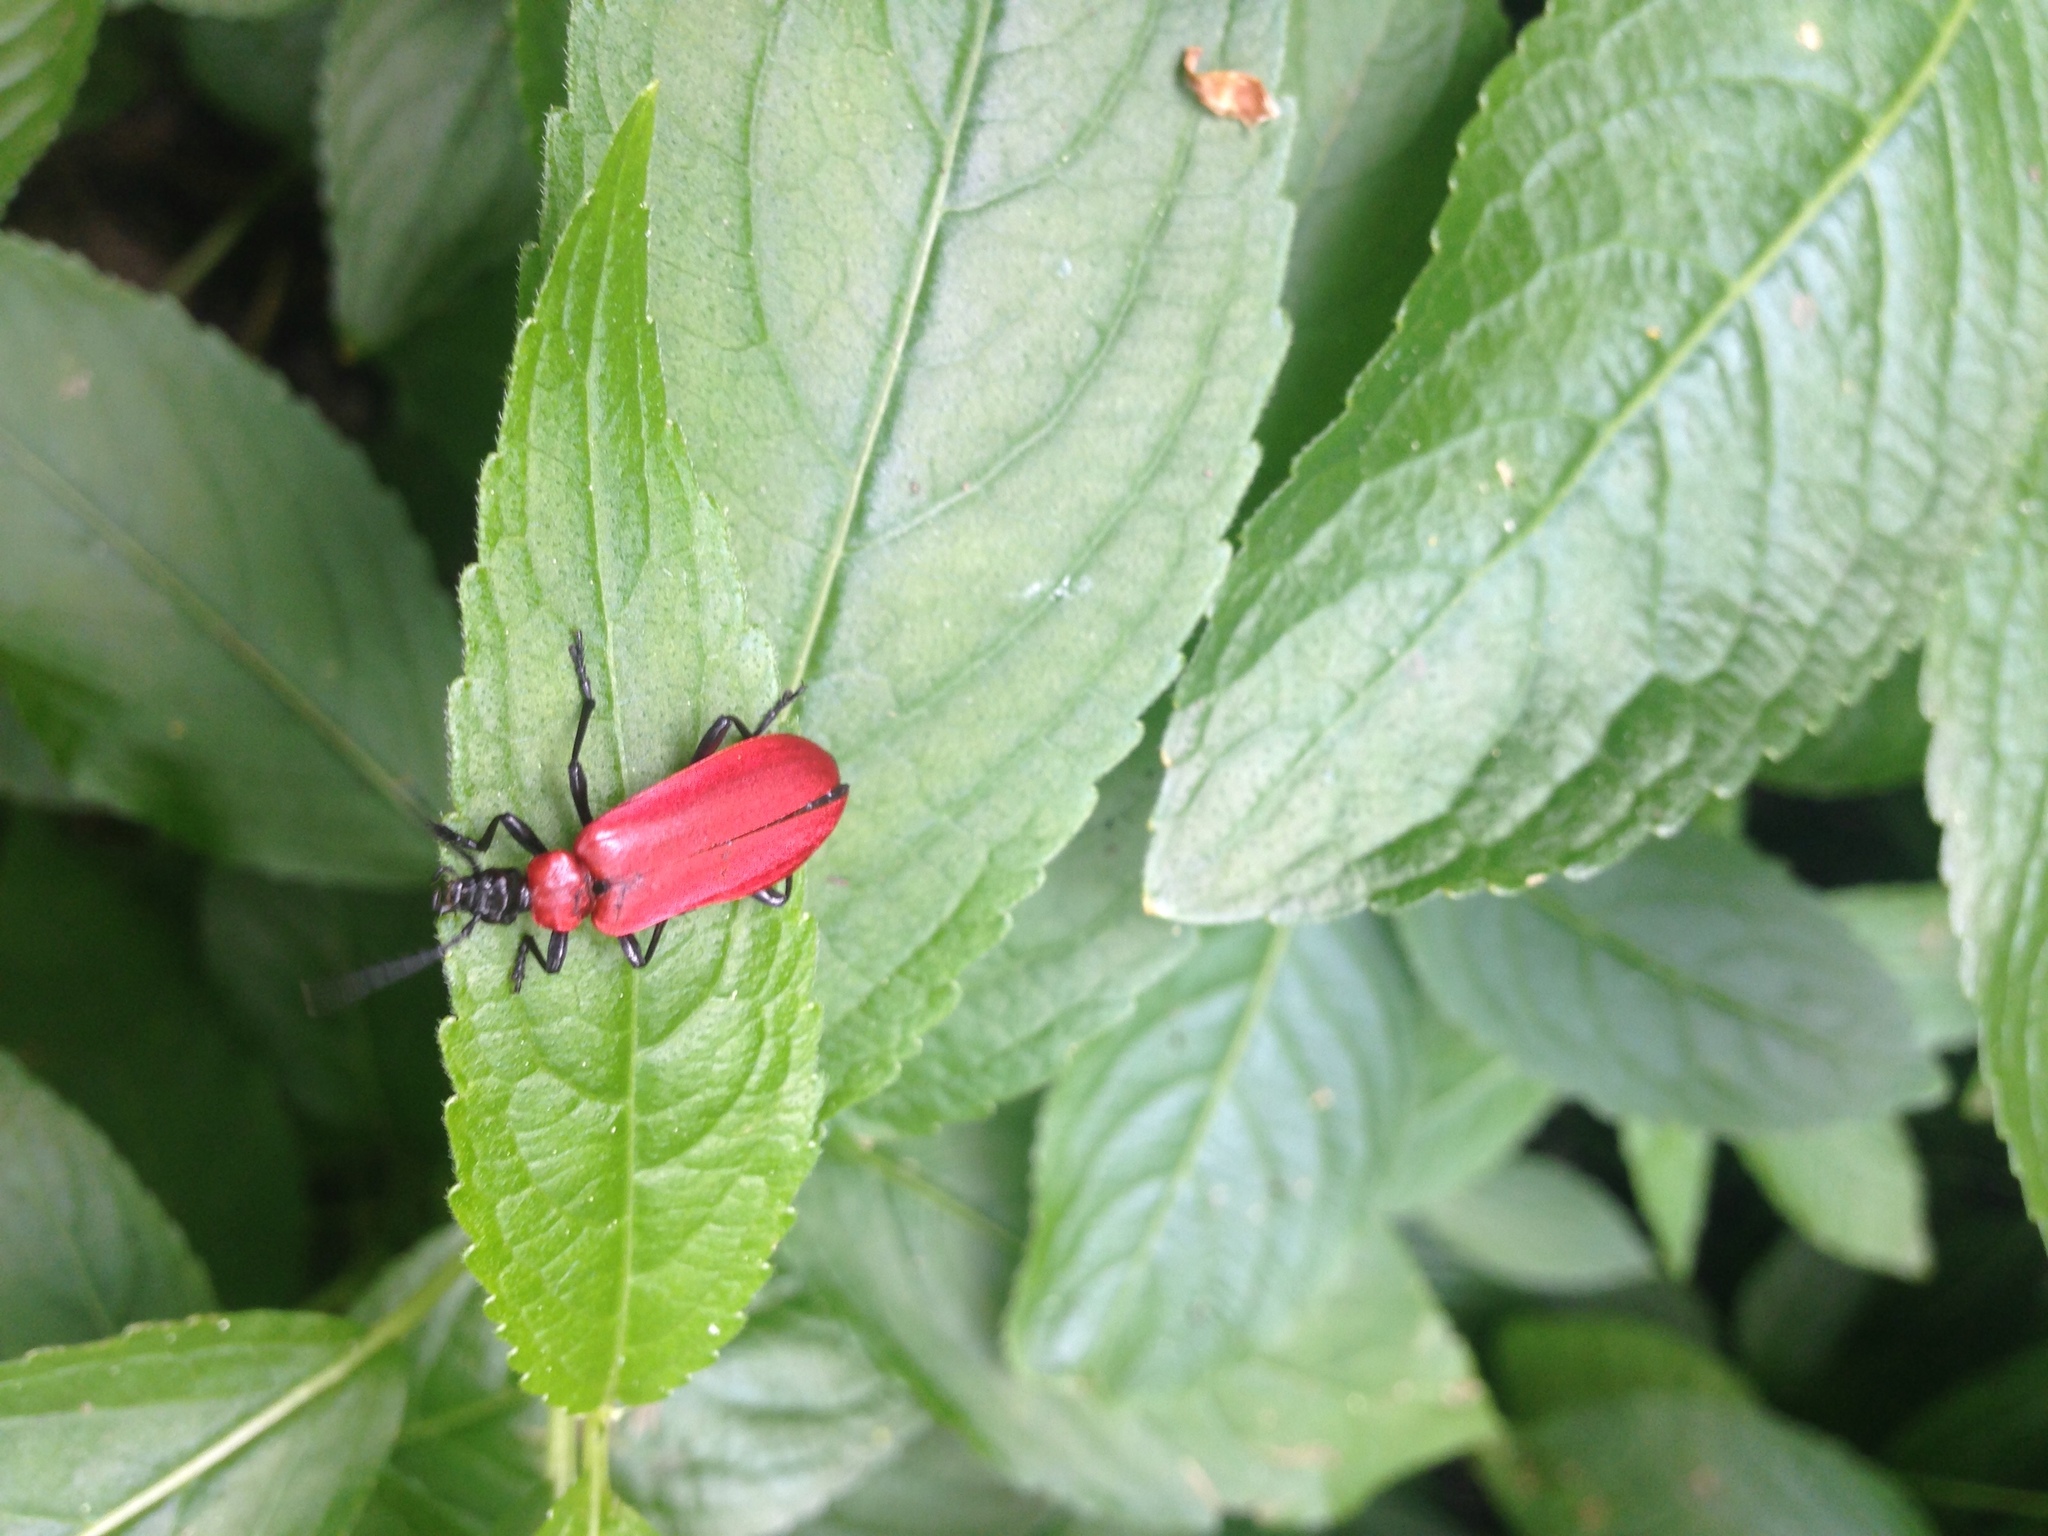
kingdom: Animalia
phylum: Arthropoda
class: Insecta
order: Coleoptera
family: Pyrochroidae
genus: Pyrochroa
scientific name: Pyrochroa coccinea
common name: Black-headed cardinal beetle
